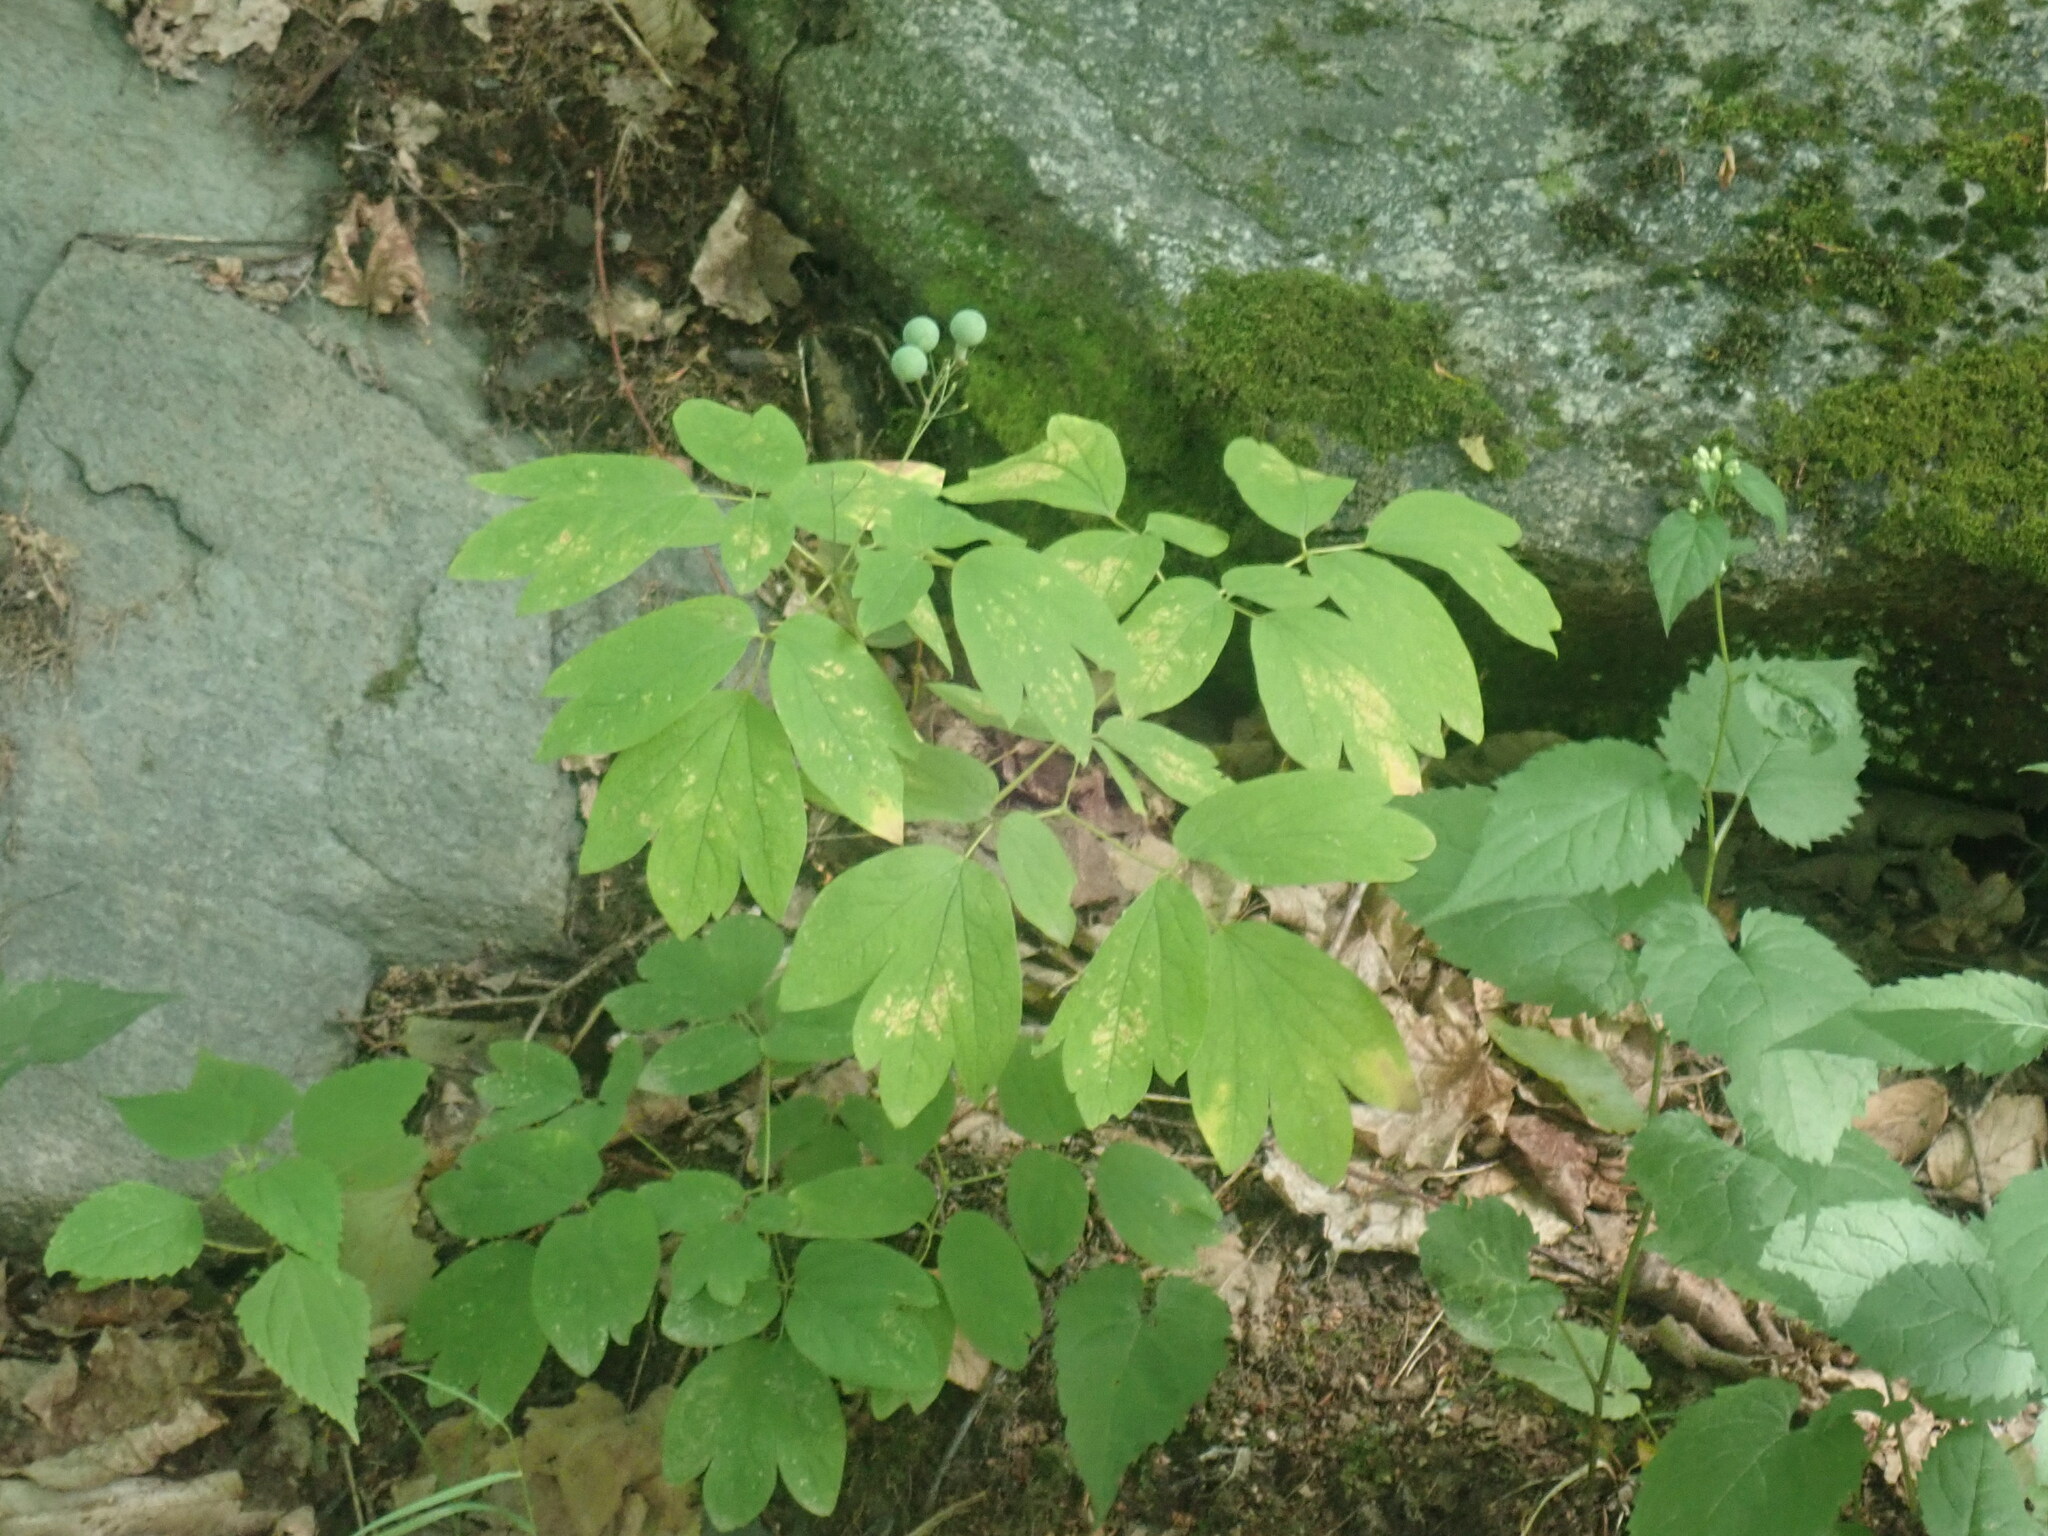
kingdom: Plantae
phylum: Tracheophyta
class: Magnoliopsida
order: Ranunculales
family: Berberidaceae
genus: Caulophyllum
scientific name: Caulophyllum
